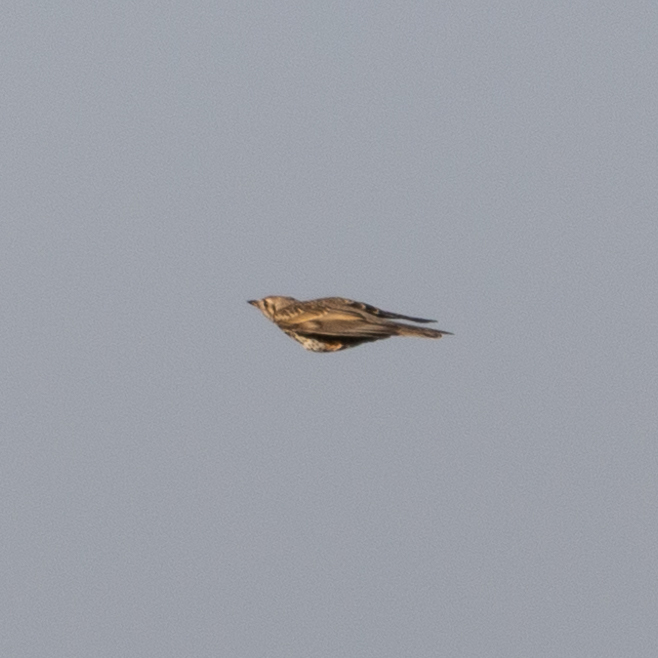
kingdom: Animalia
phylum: Chordata
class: Aves
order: Passeriformes
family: Turdidae
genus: Turdus
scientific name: Turdus viscivorus
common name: Mistle thrush
